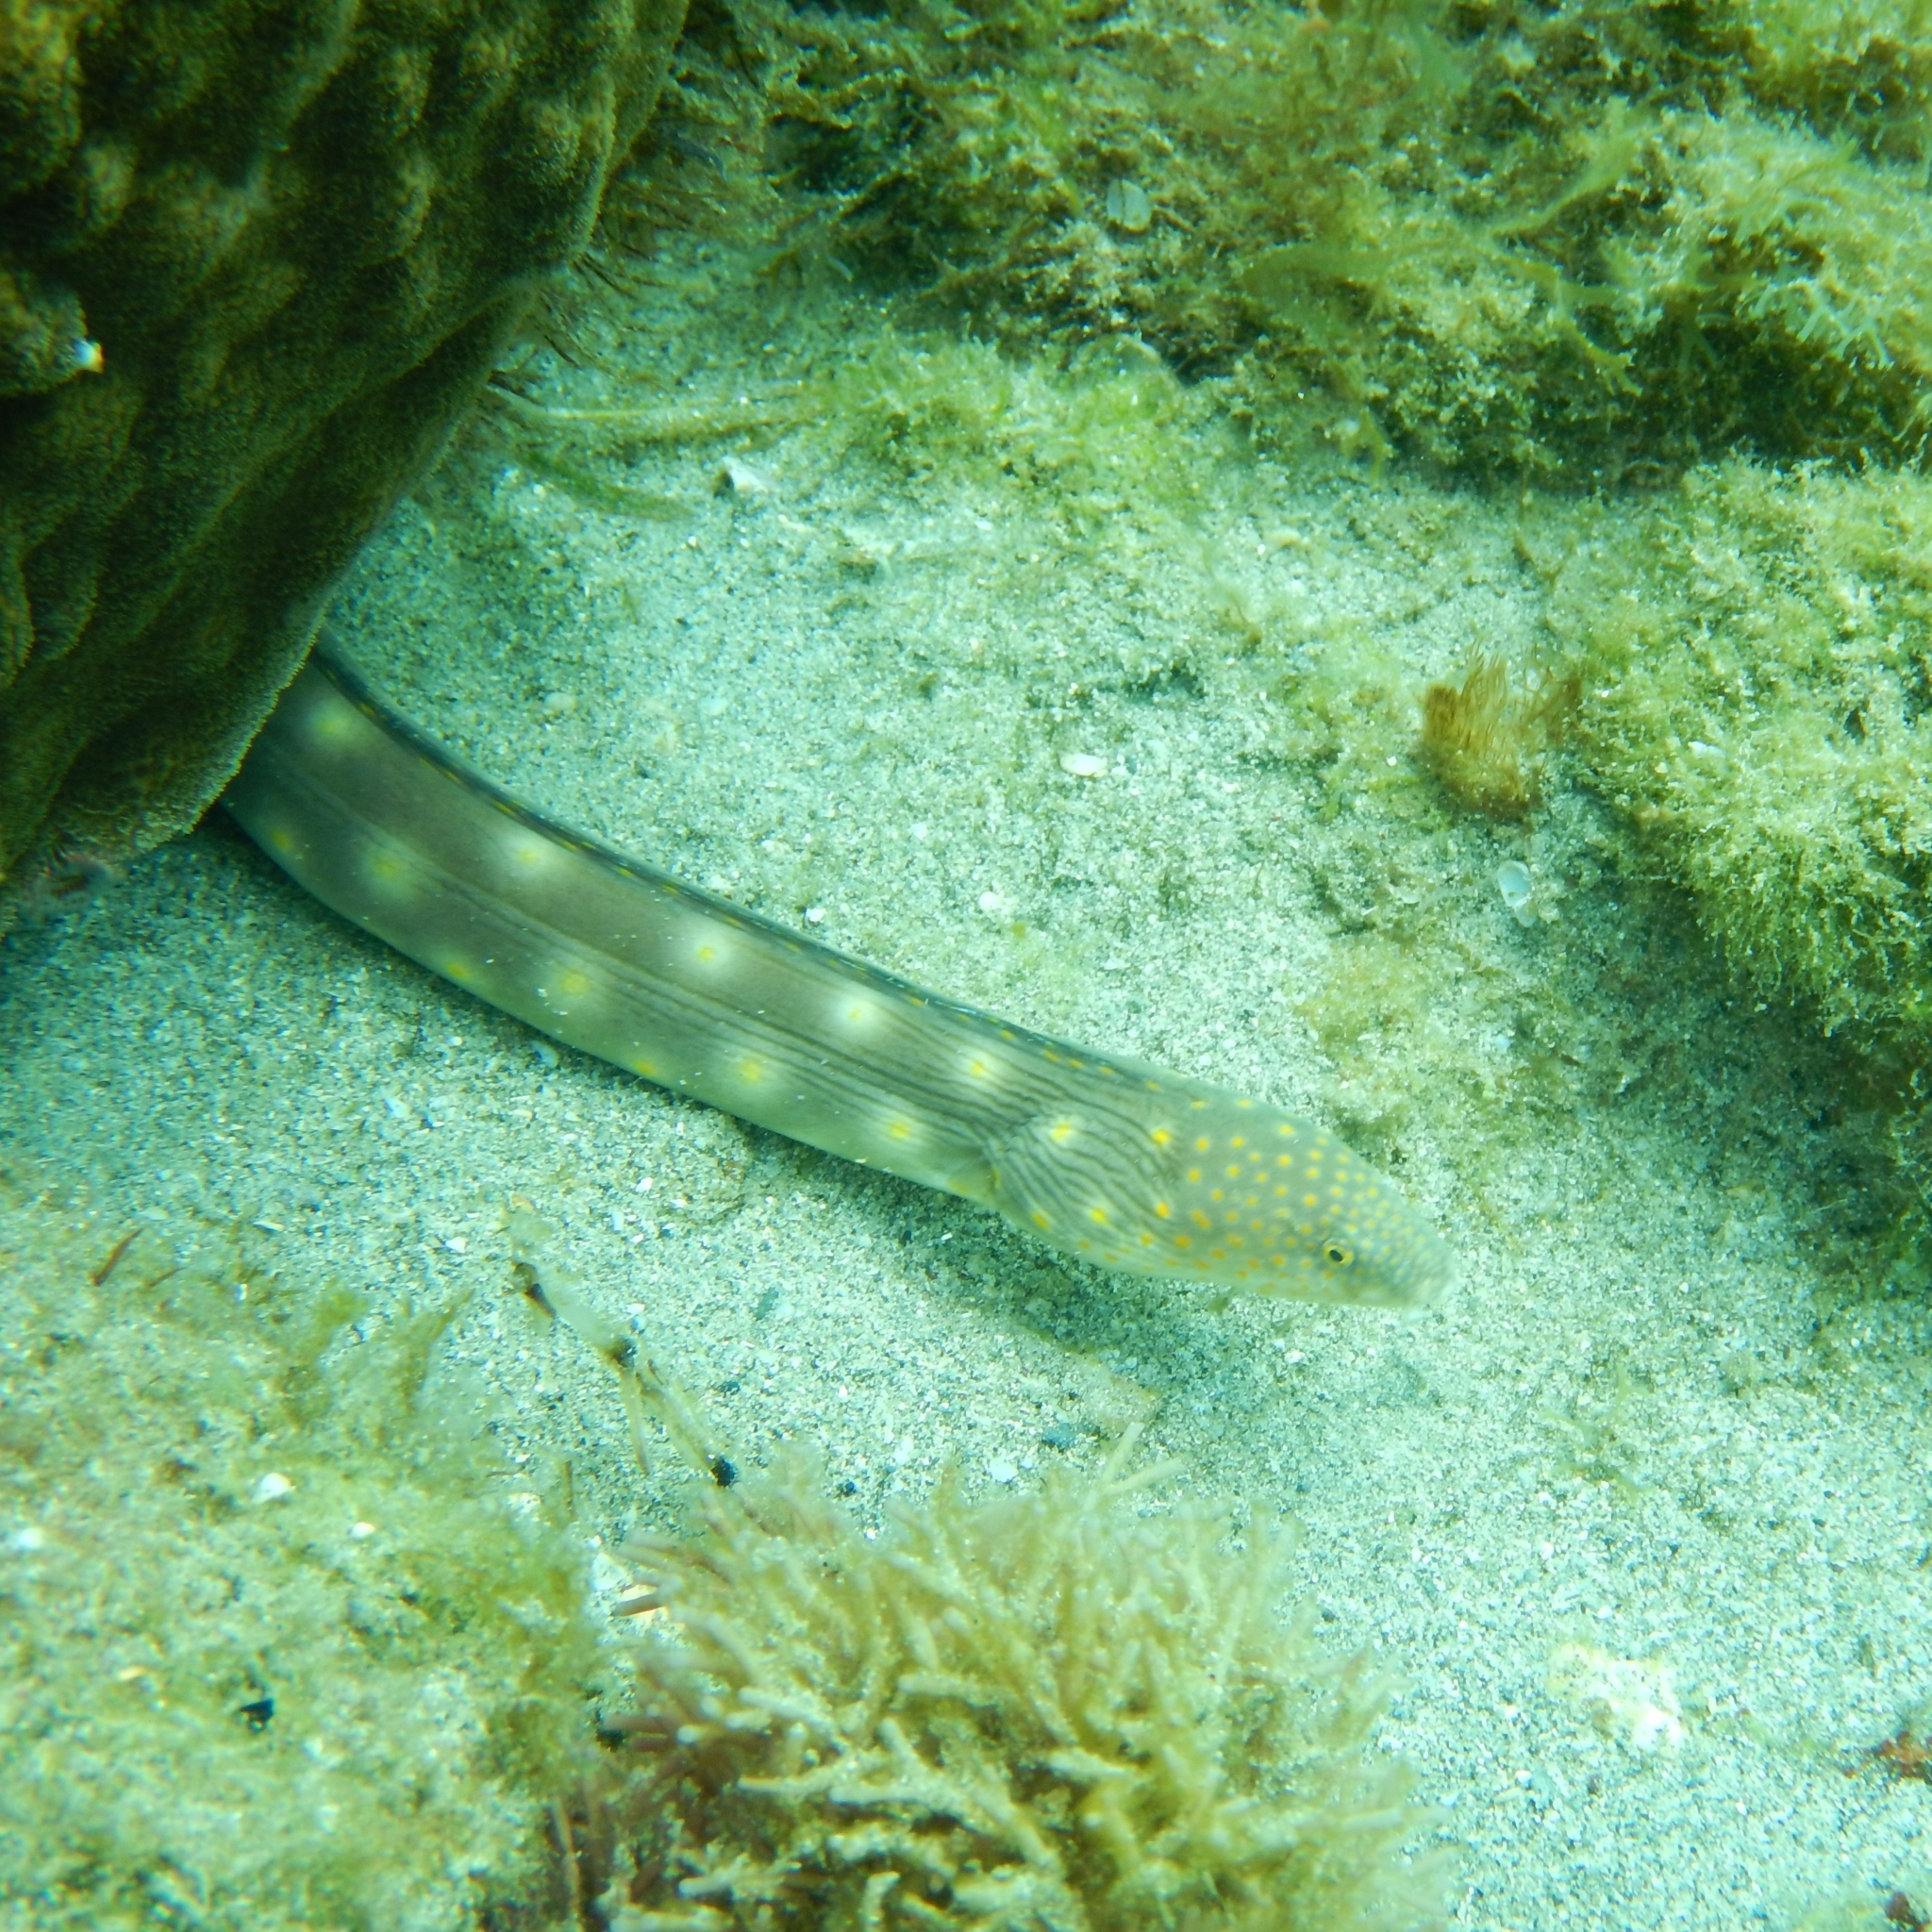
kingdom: Animalia
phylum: Chordata
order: Anguilliformes
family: Ophichthidae
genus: Myrichthys
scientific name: Myrichthys breviceps
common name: Sharptail eel
